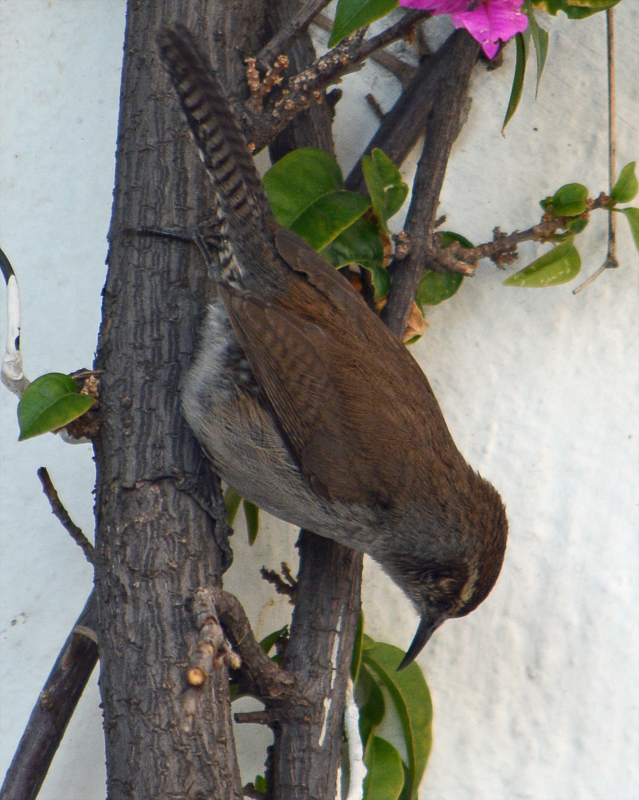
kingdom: Animalia
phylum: Chordata
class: Aves
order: Passeriformes
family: Troglodytidae
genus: Thryomanes
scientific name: Thryomanes bewickii
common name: Bewick's wren
